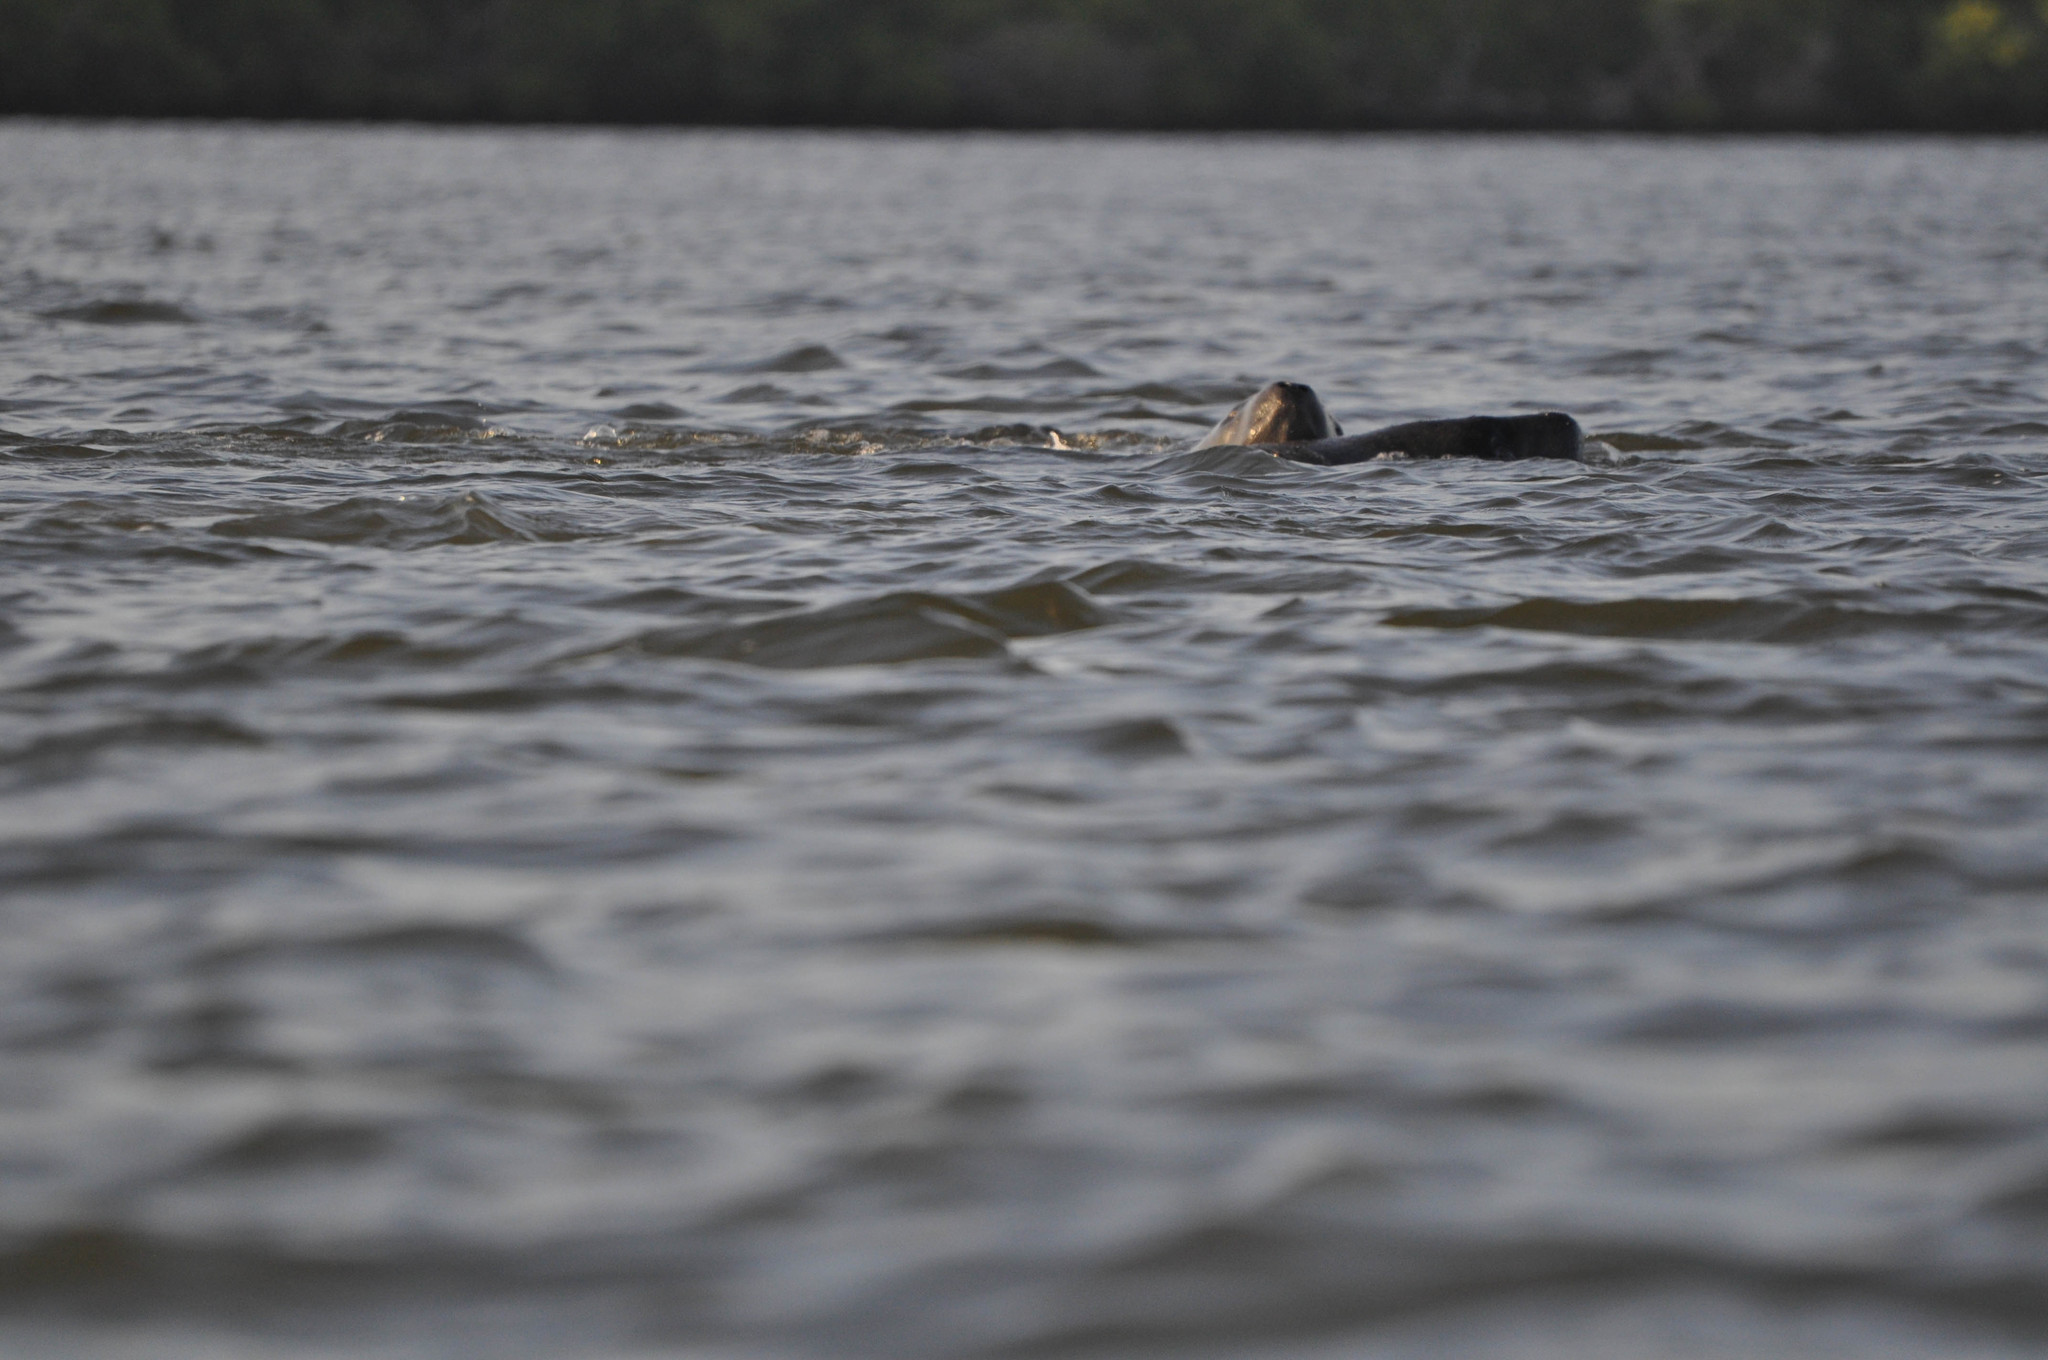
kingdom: Animalia
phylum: Chordata
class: Mammalia
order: Sirenia
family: Trichechidae
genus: Trichechus
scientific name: Trichechus manatus
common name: West indian manatee
